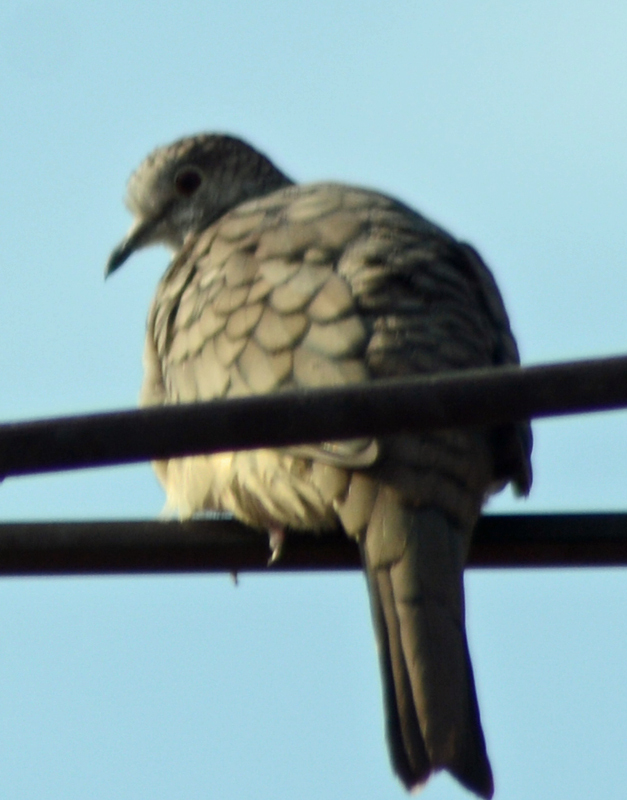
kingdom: Animalia
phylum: Chordata
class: Aves
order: Columbiformes
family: Columbidae
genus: Columbina
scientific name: Columbina inca
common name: Inca dove
